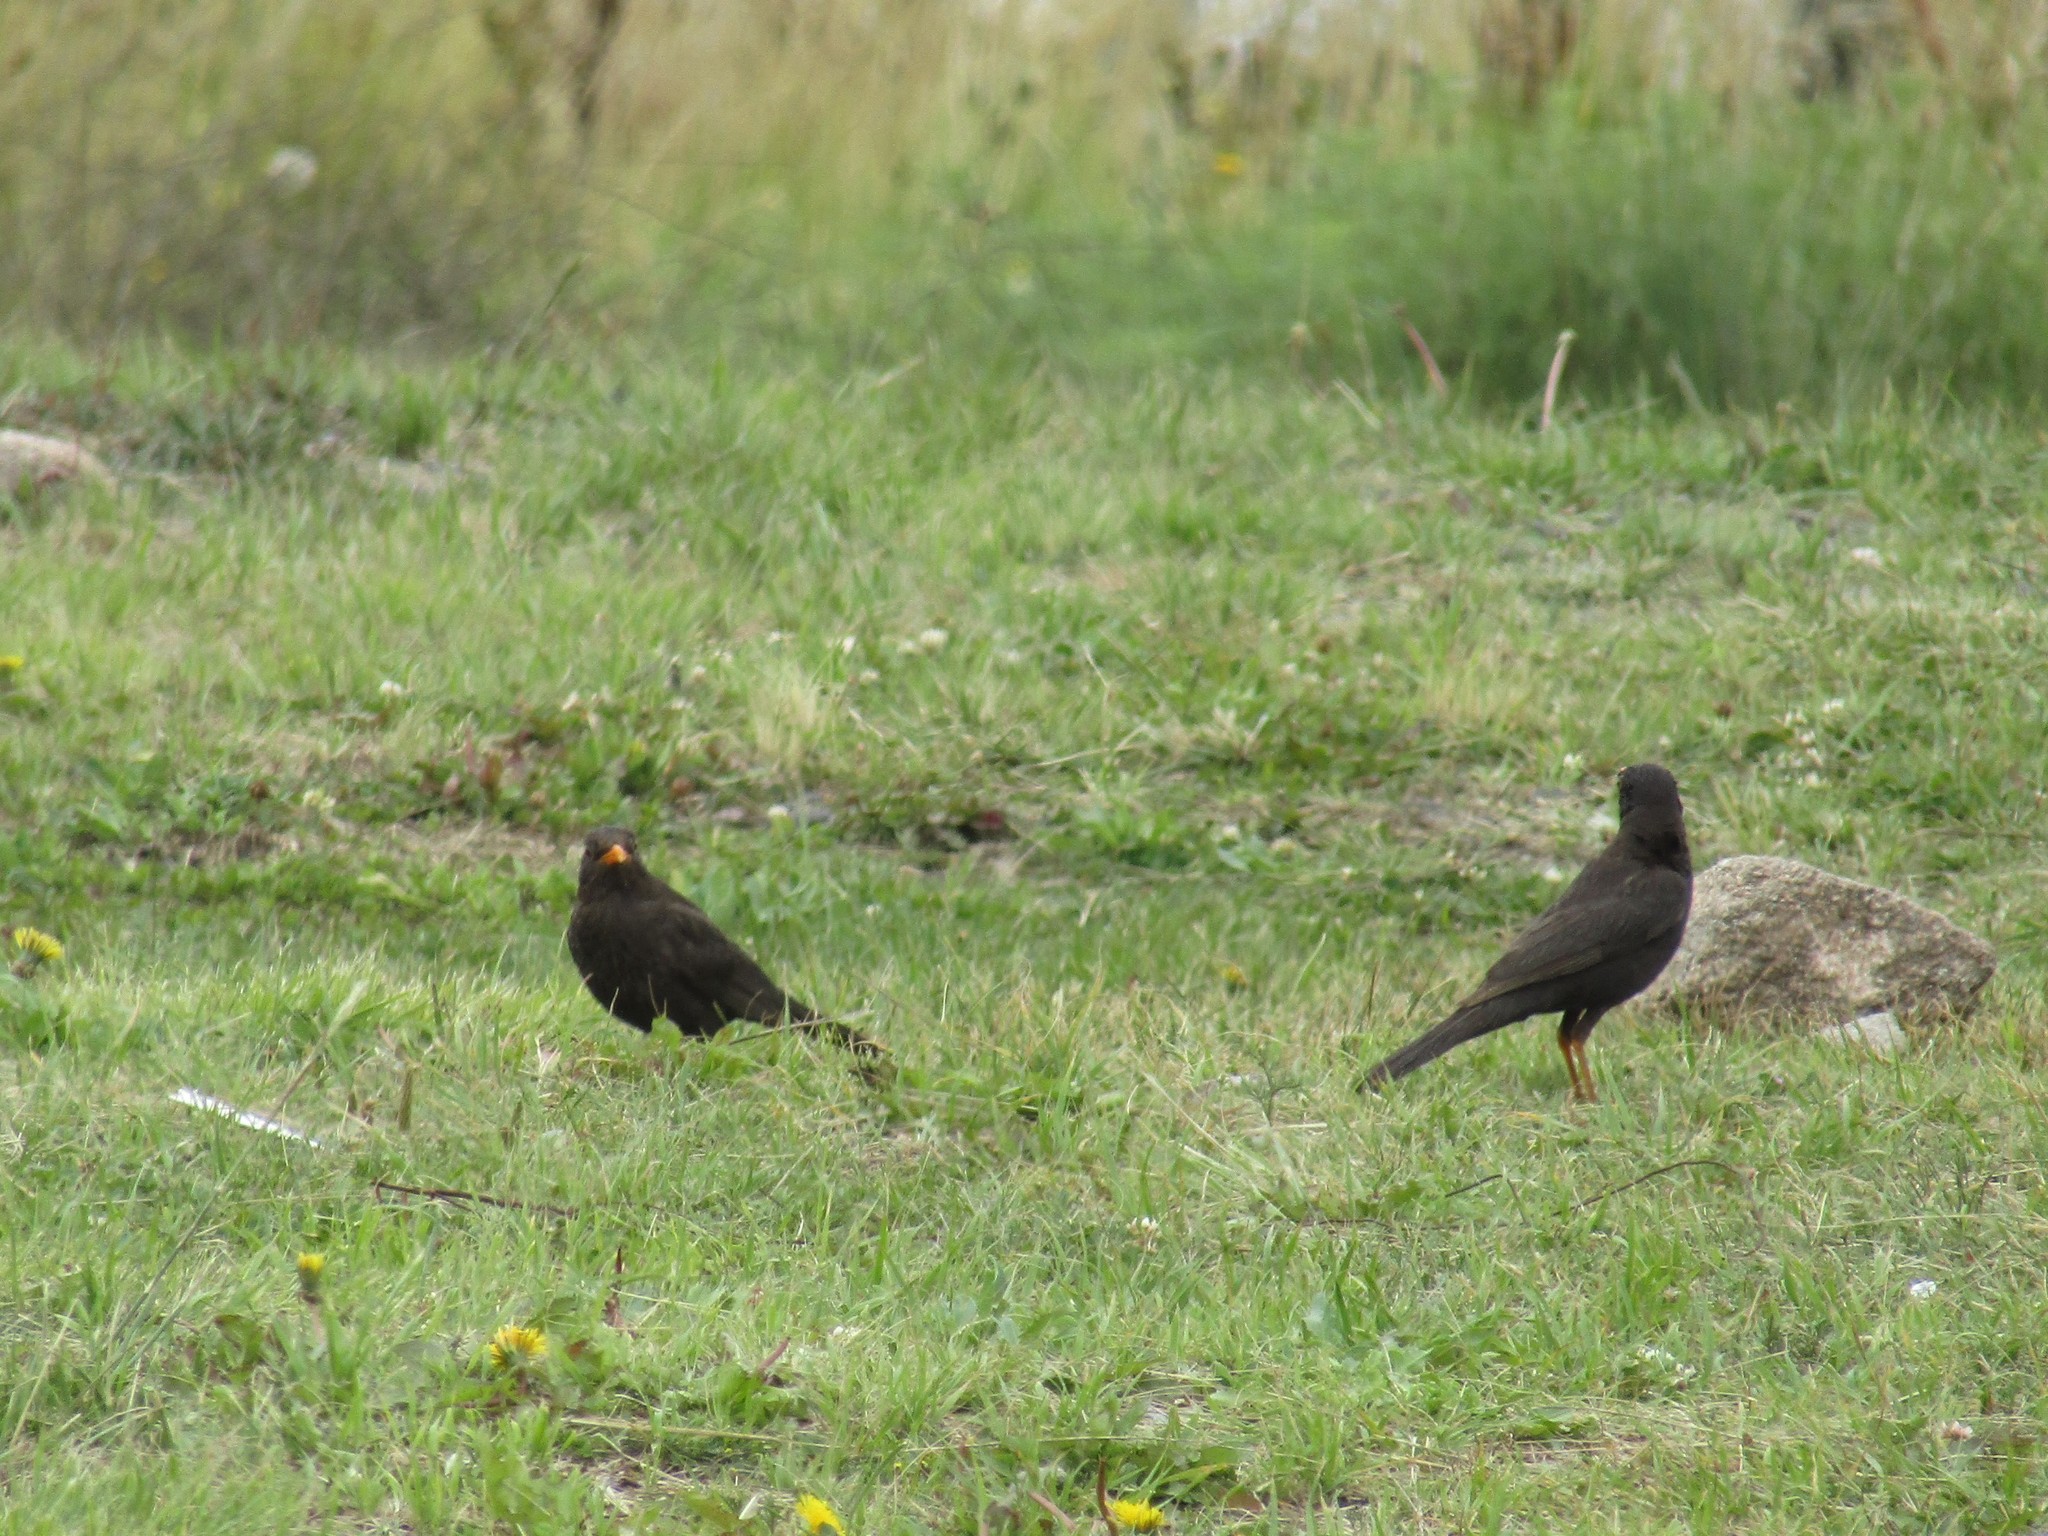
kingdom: Animalia
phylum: Chordata
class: Aves
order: Passeriformes
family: Turdidae
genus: Turdus
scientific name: Turdus chiguanco
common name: Chiguanco thrush
